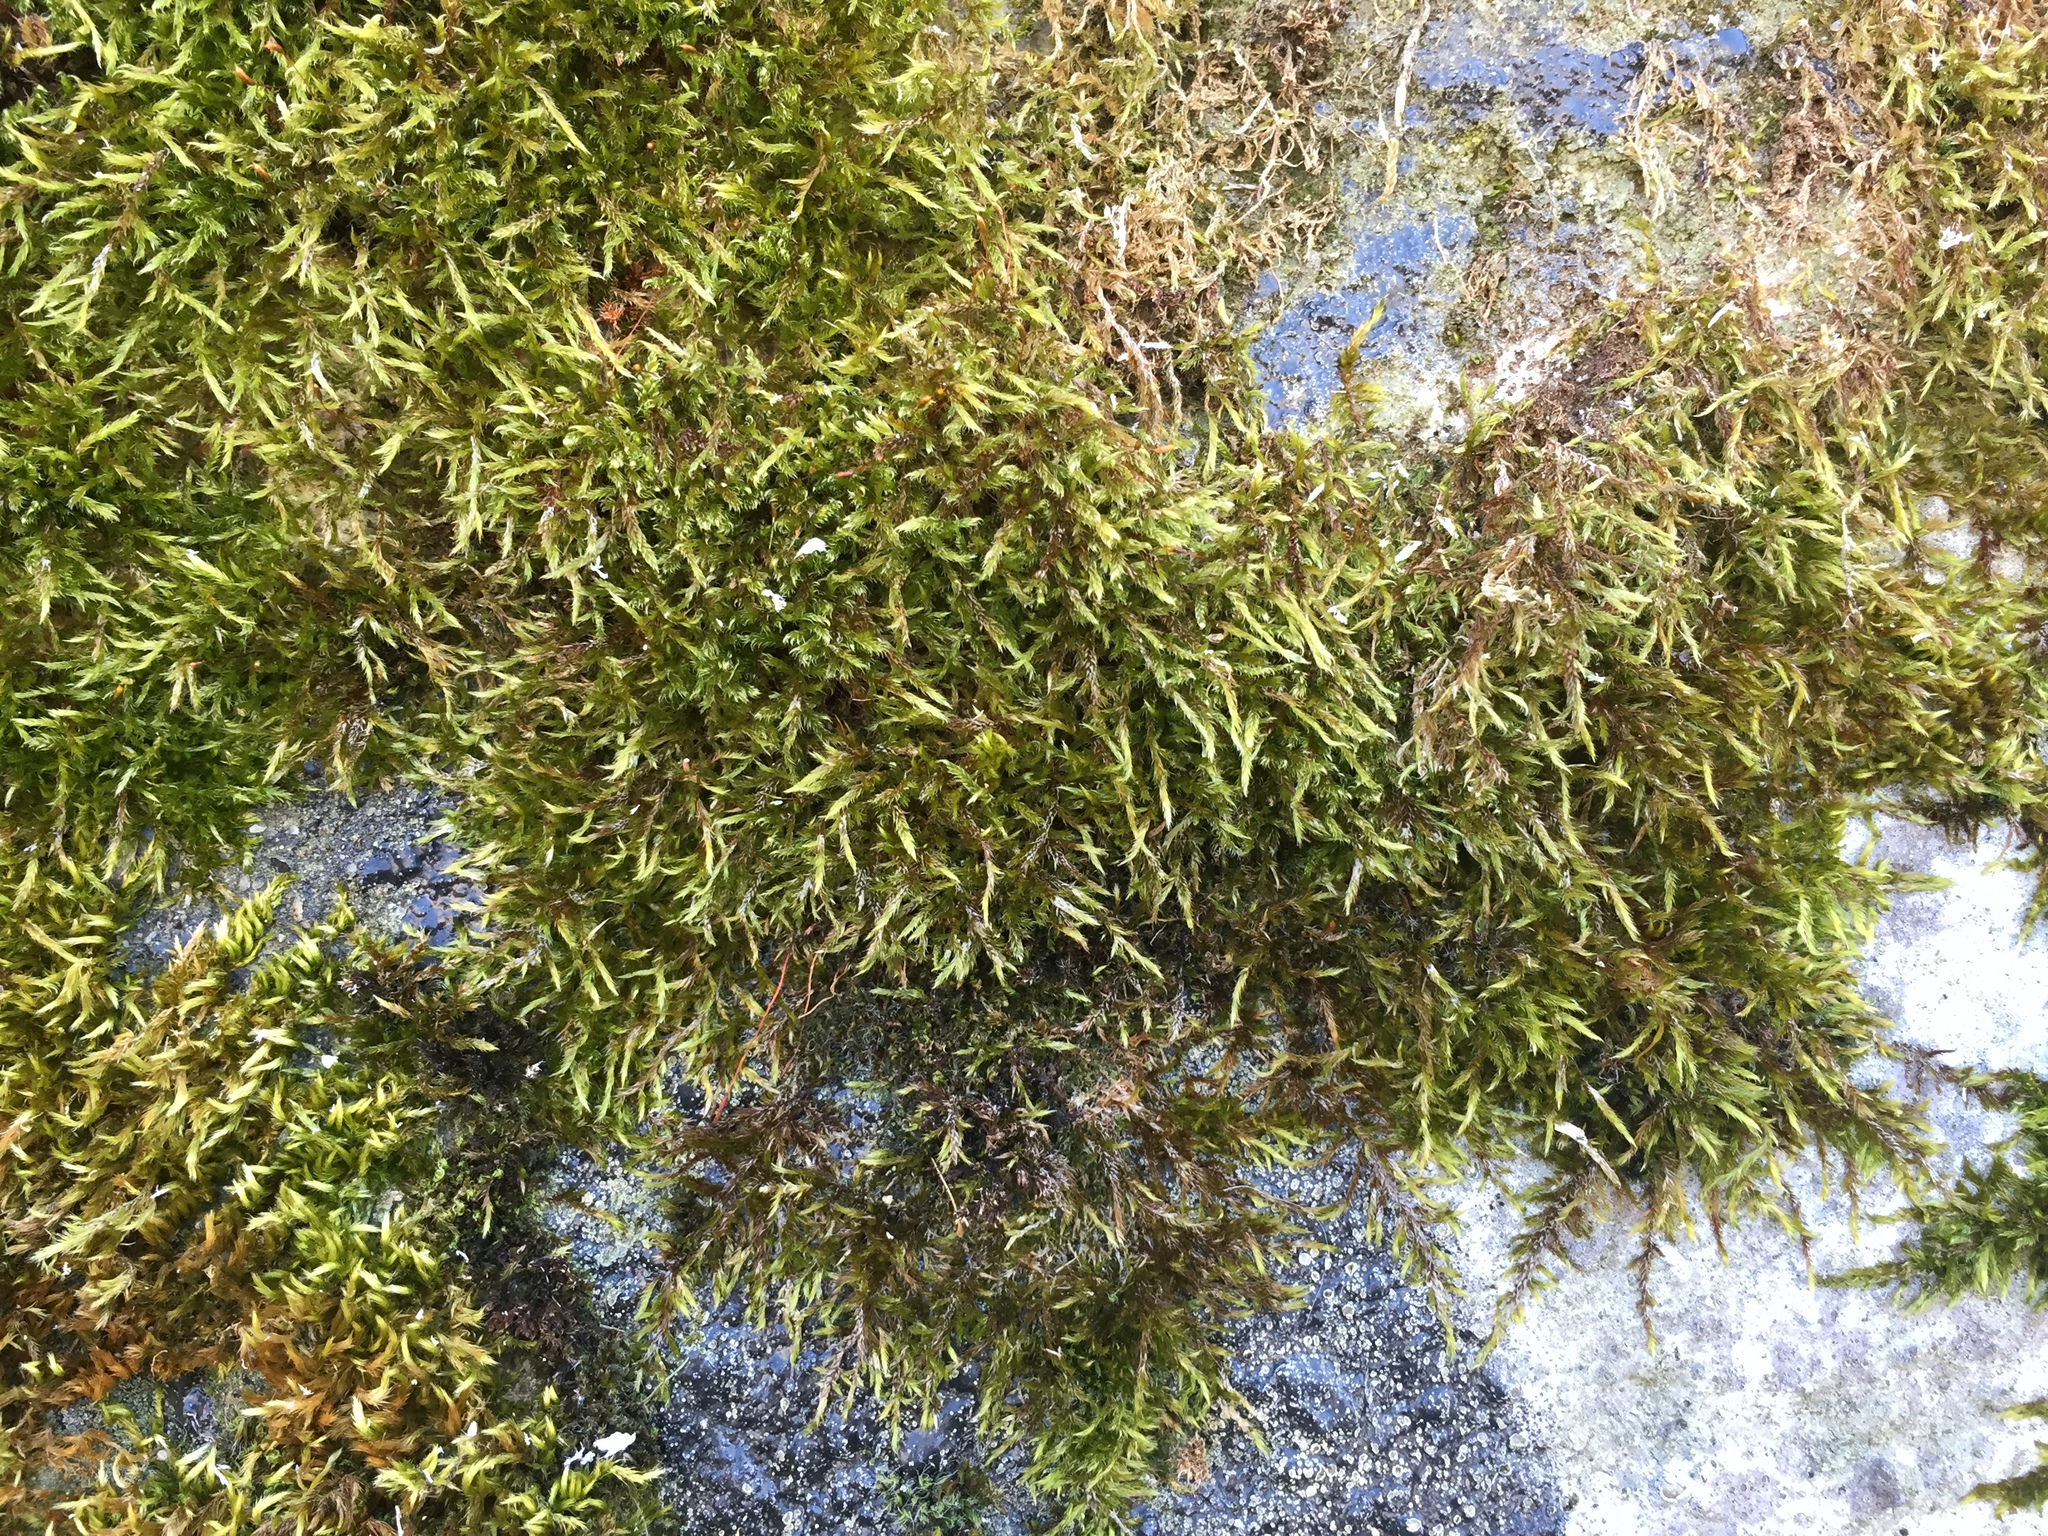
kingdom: Plantae
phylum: Bryophyta
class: Bryopsida
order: Hypnales
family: Brachytheciaceae
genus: Homalothecium
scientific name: Homalothecium sericeum
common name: Silky wall feather-moss
